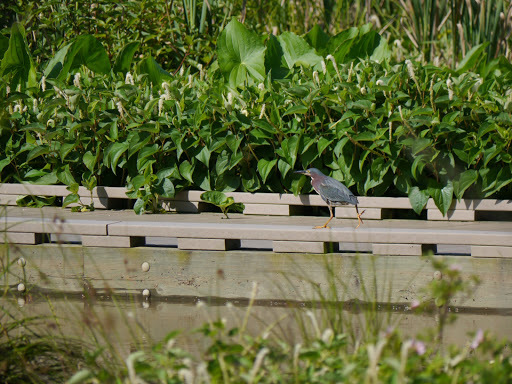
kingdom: Animalia
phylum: Chordata
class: Aves
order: Pelecaniformes
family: Ardeidae
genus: Butorides
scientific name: Butorides virescens
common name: Green heron
